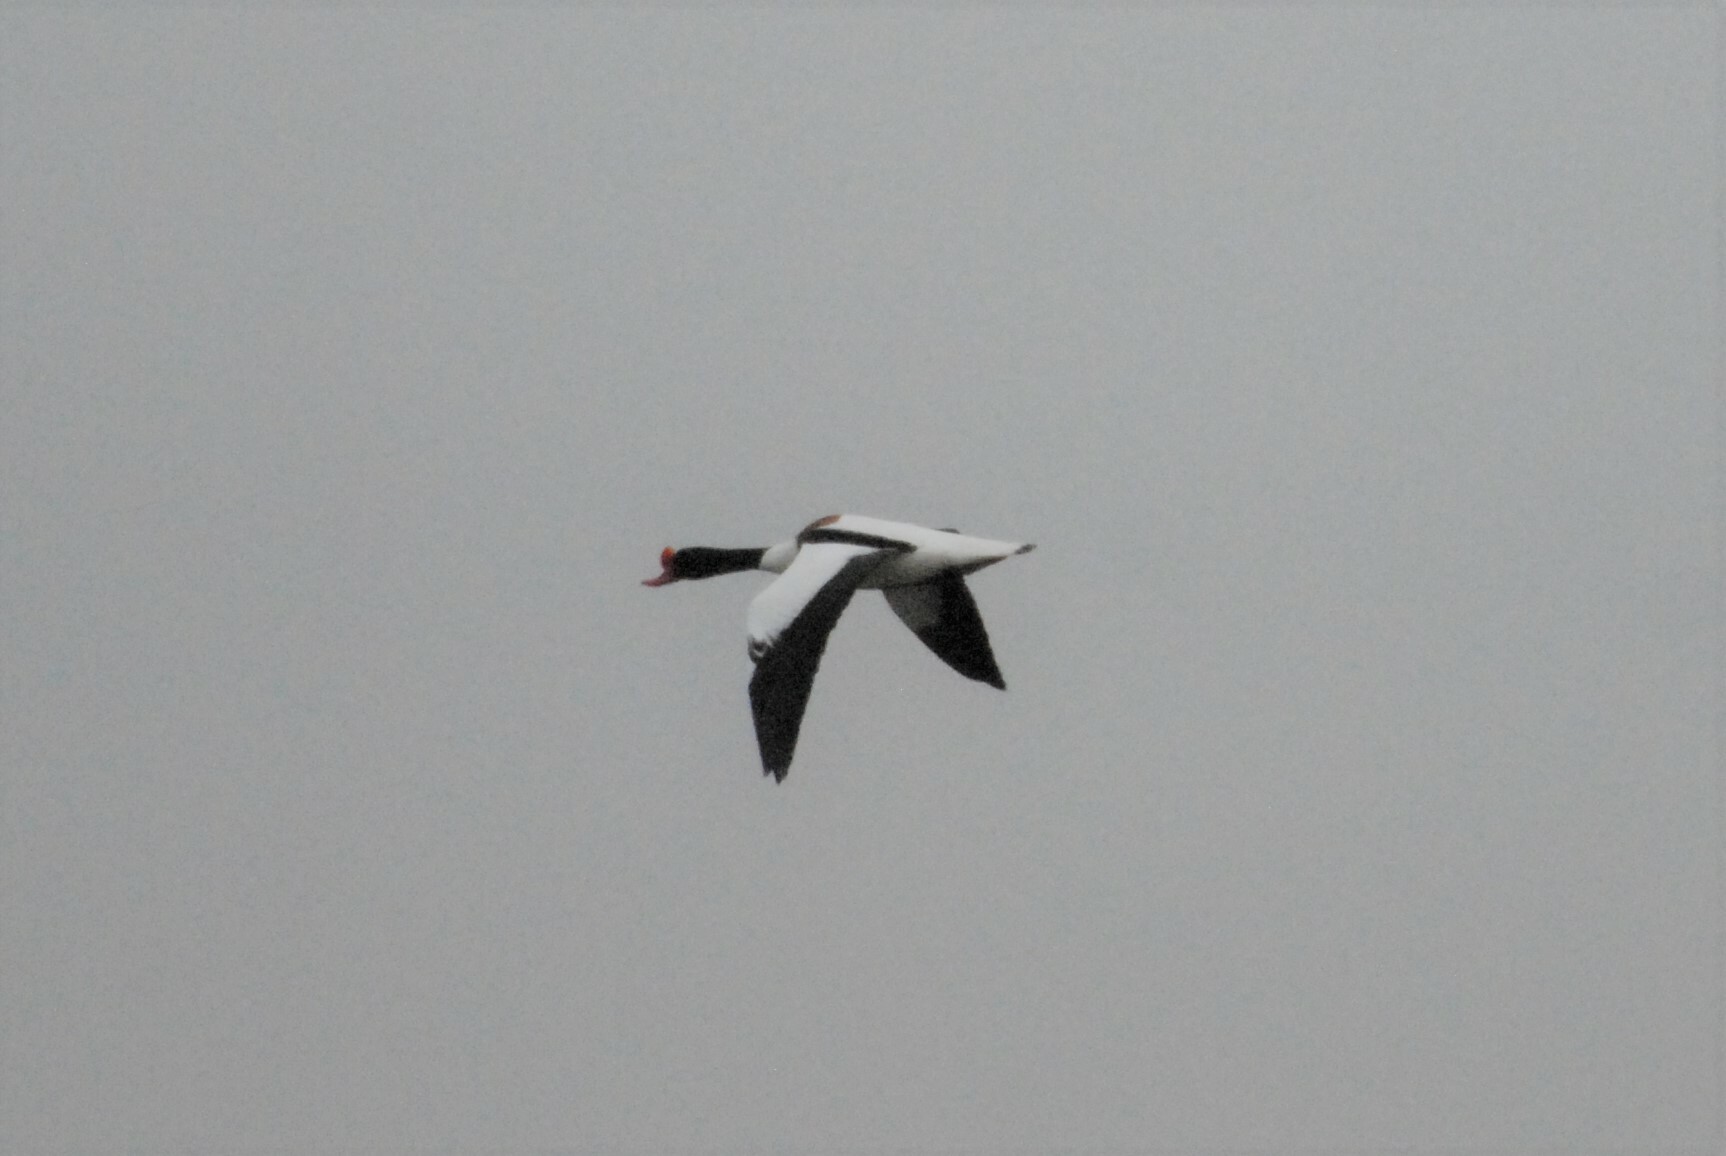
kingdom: Animalia
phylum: Chordata
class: Aves
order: Anseriformes
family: Anatidae
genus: Tadorna
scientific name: Tadorna tadorna
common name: Common shelduck
